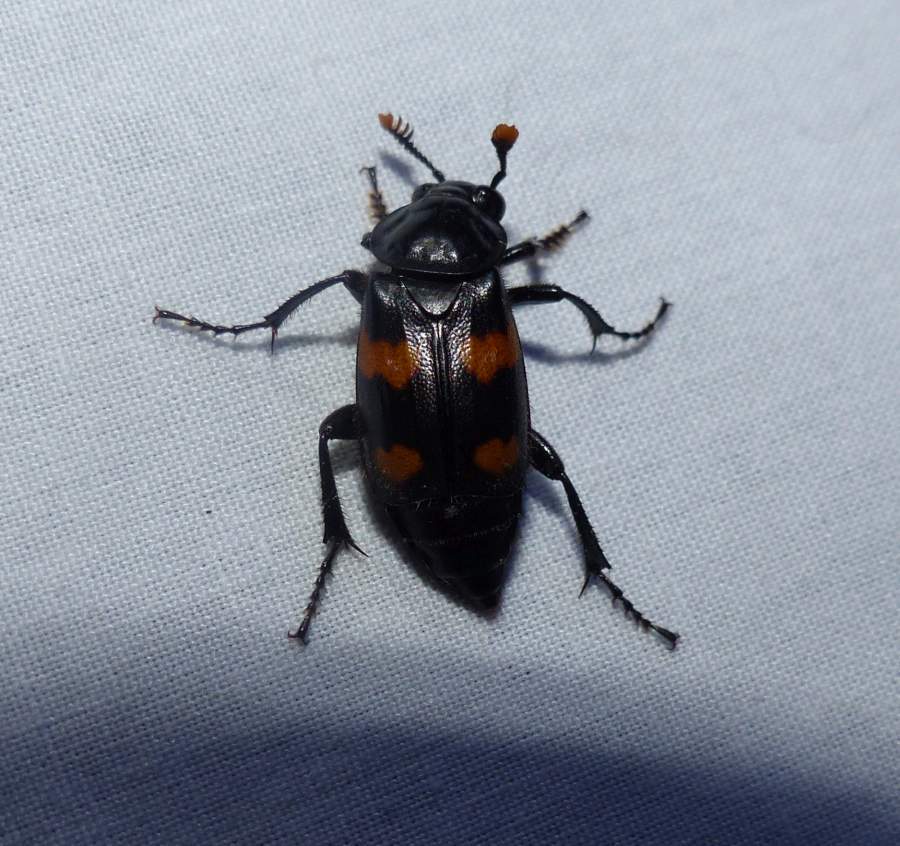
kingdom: Animalia
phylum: Arthropoda
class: Insecta
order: Coleoptera
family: Staphylinidae
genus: Nicrophorus
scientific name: Nicrophorus orbicollis
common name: Roundneck sexton beetle
